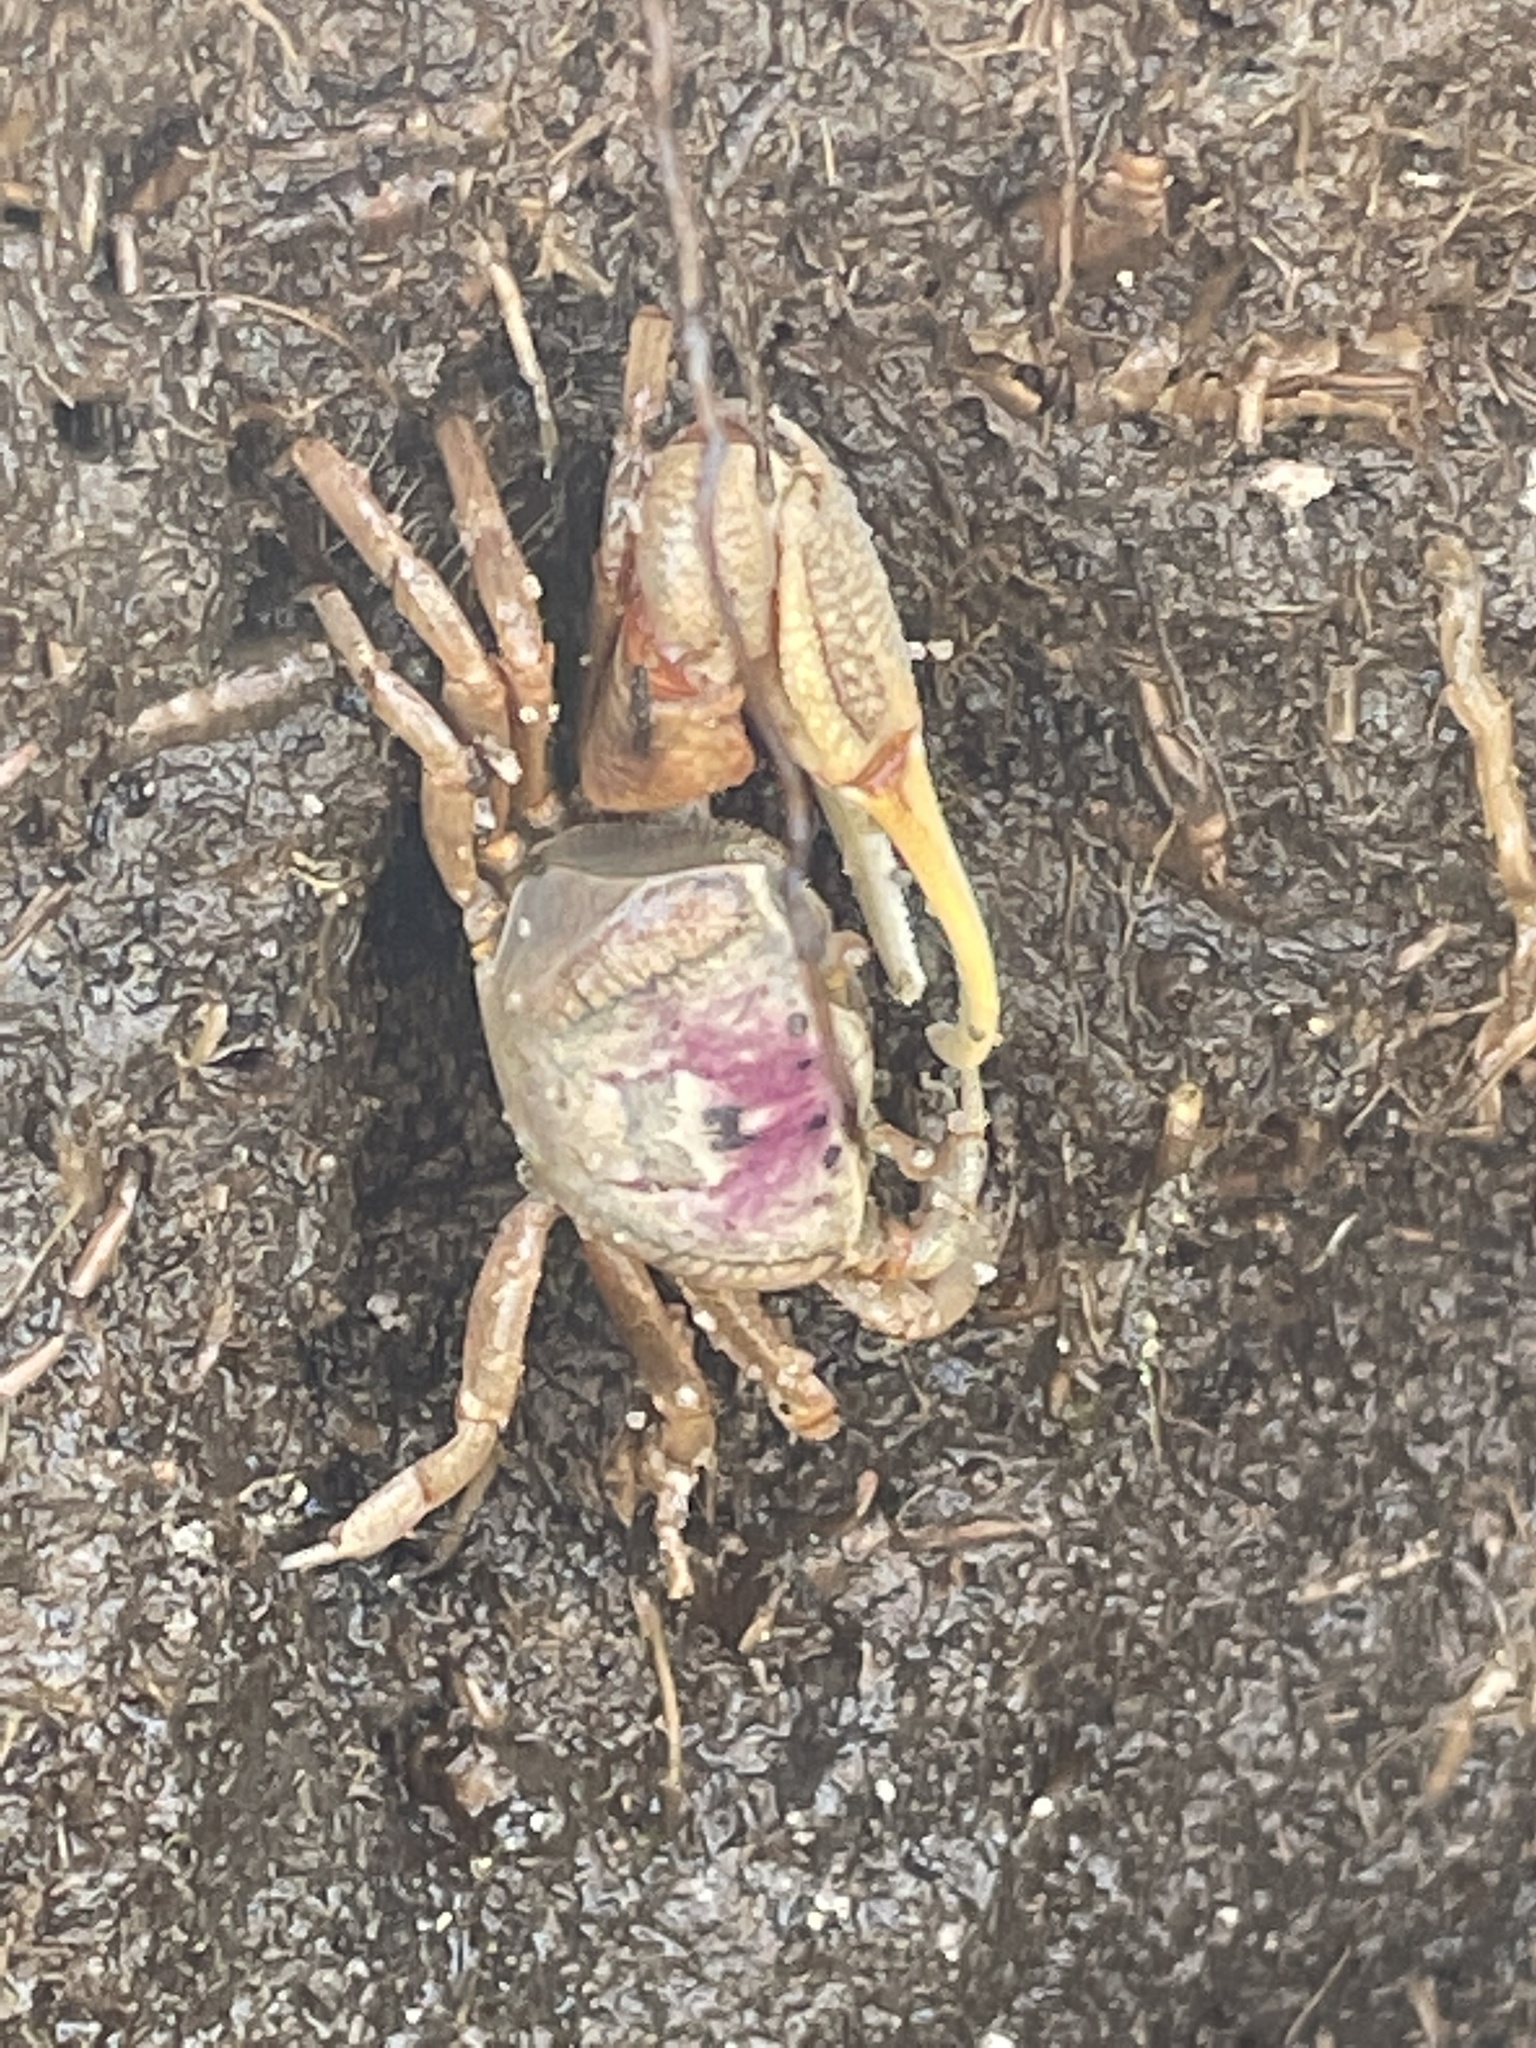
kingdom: Animalia
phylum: Arthropoda
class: Malacostraca
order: Decapoda
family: Ocypodidae
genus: Leptuca
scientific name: Leptuca pugilator
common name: Atlantic sand fiddler crab
